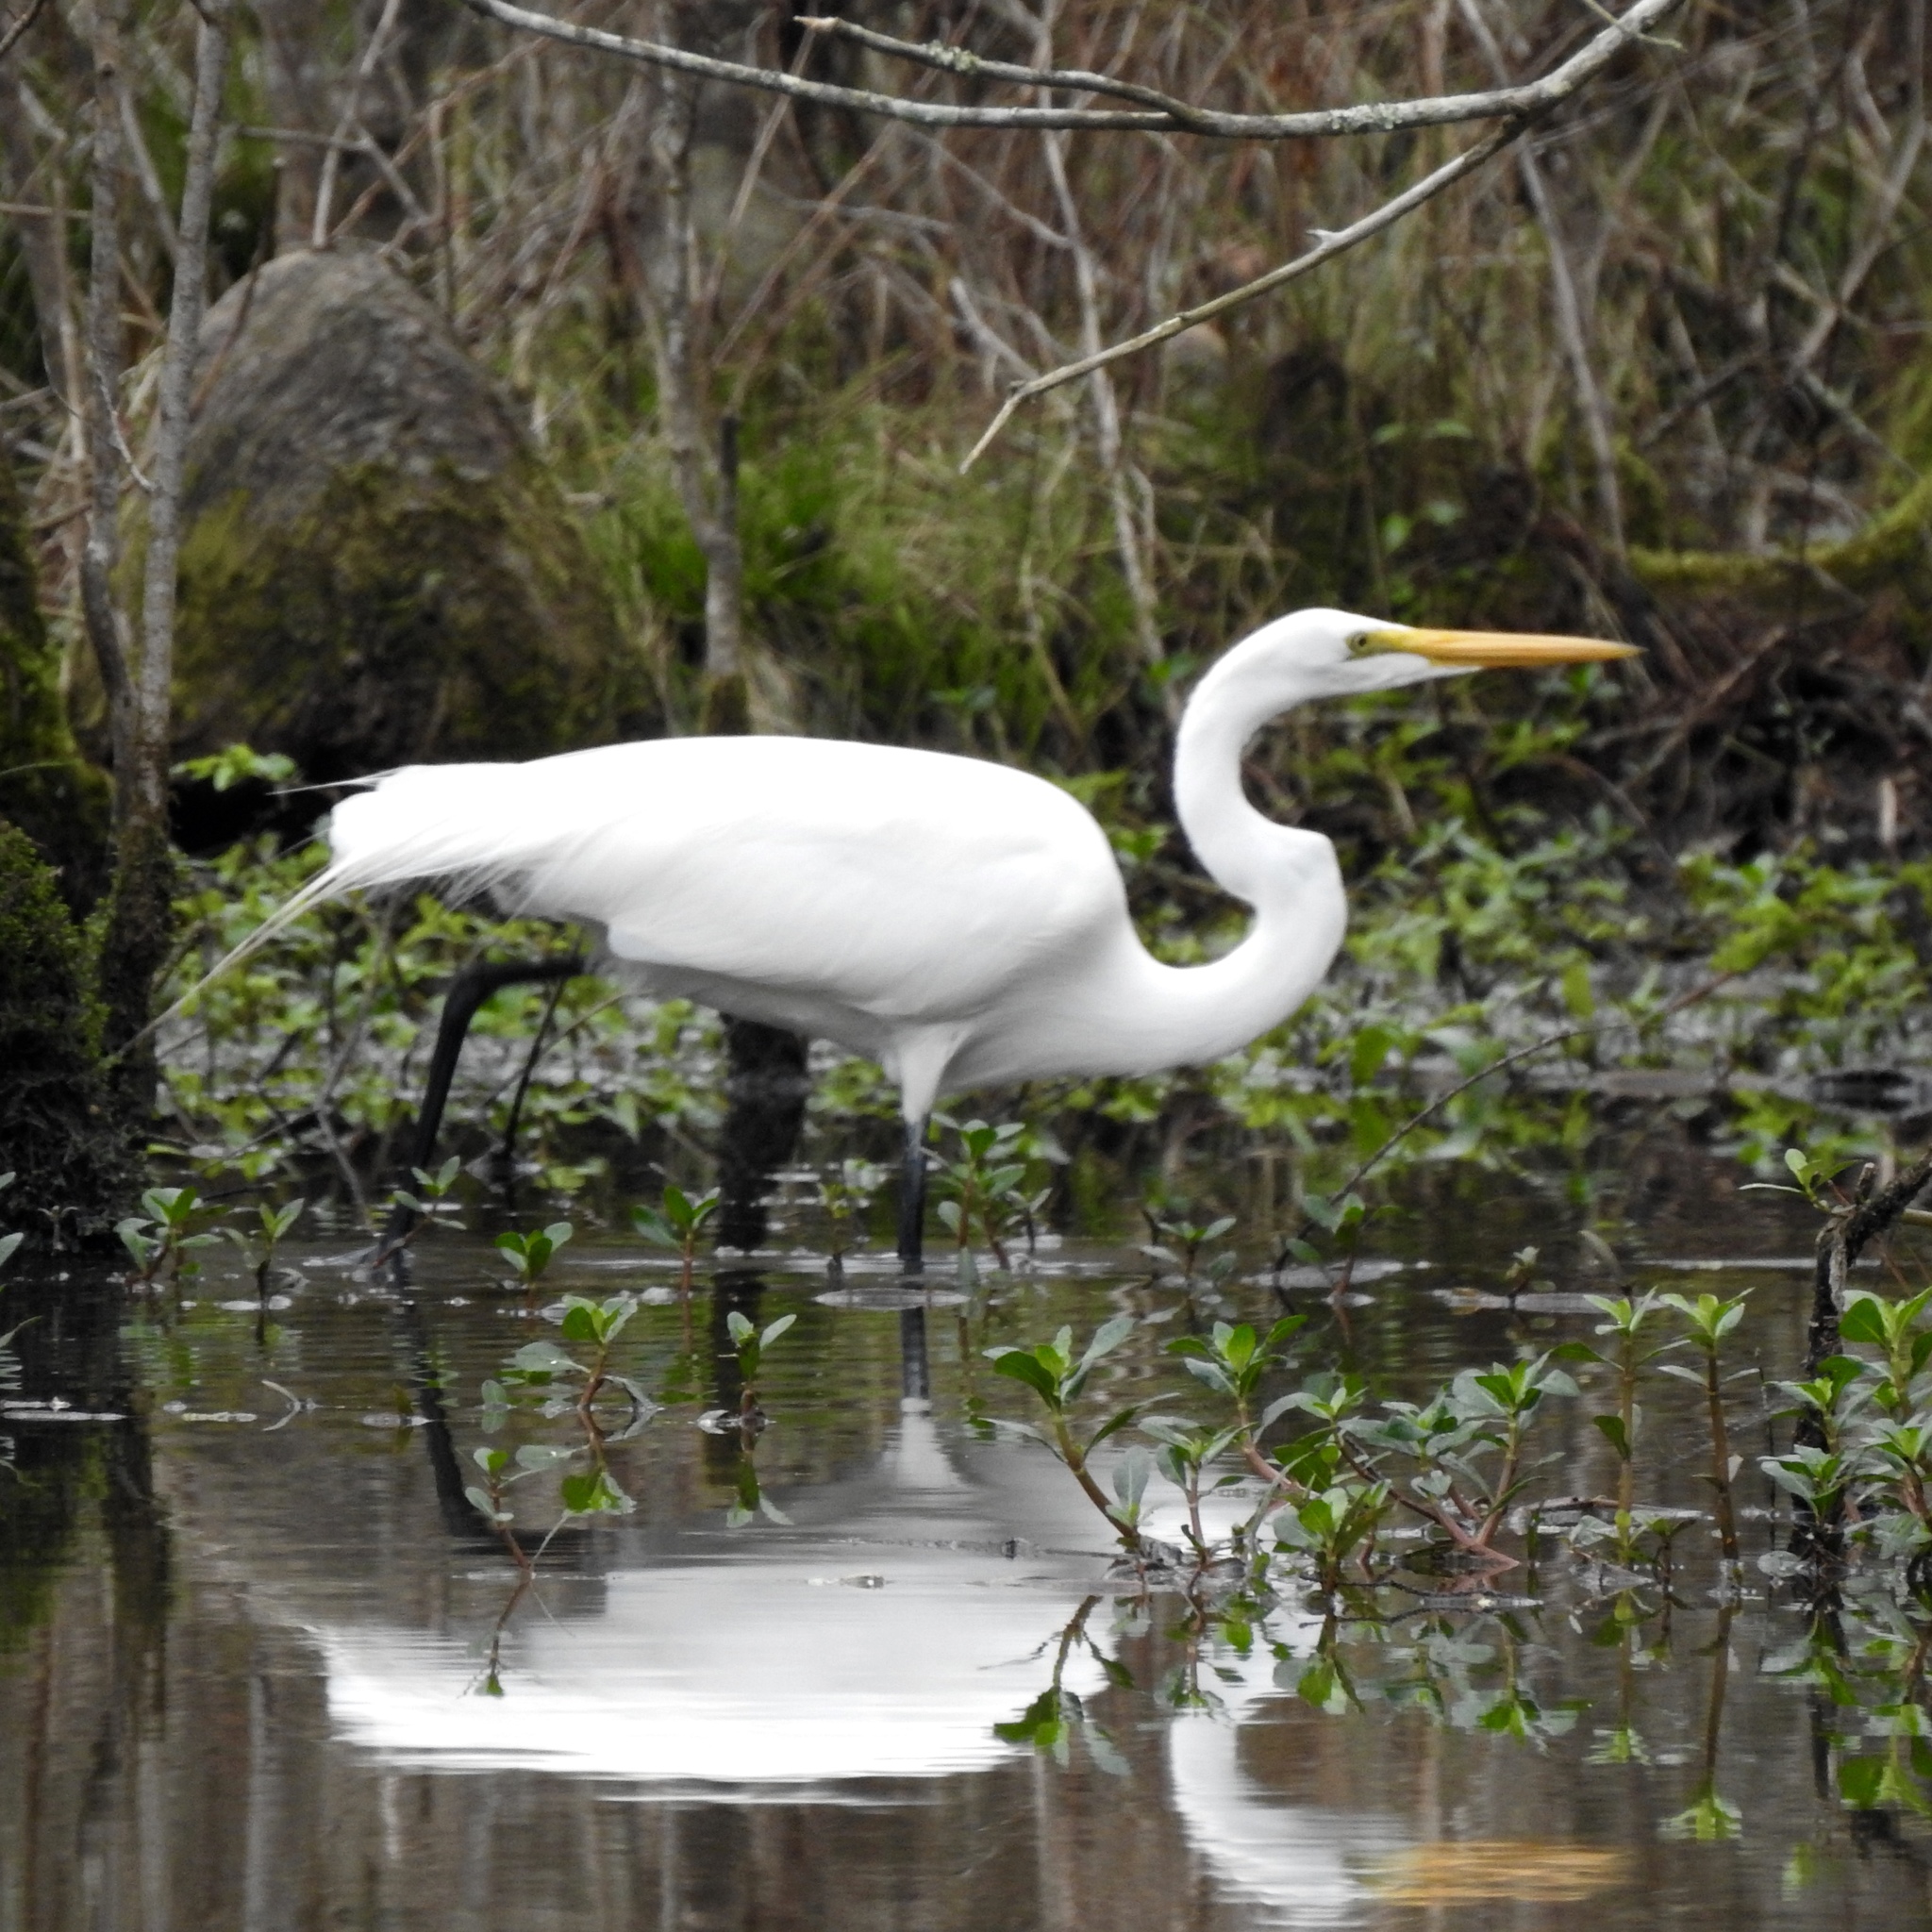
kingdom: Animalia
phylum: Chordata
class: Aves
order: Pelecaniformes
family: Ardeidae
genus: Ardea
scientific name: Ardea alba
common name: Great egret
